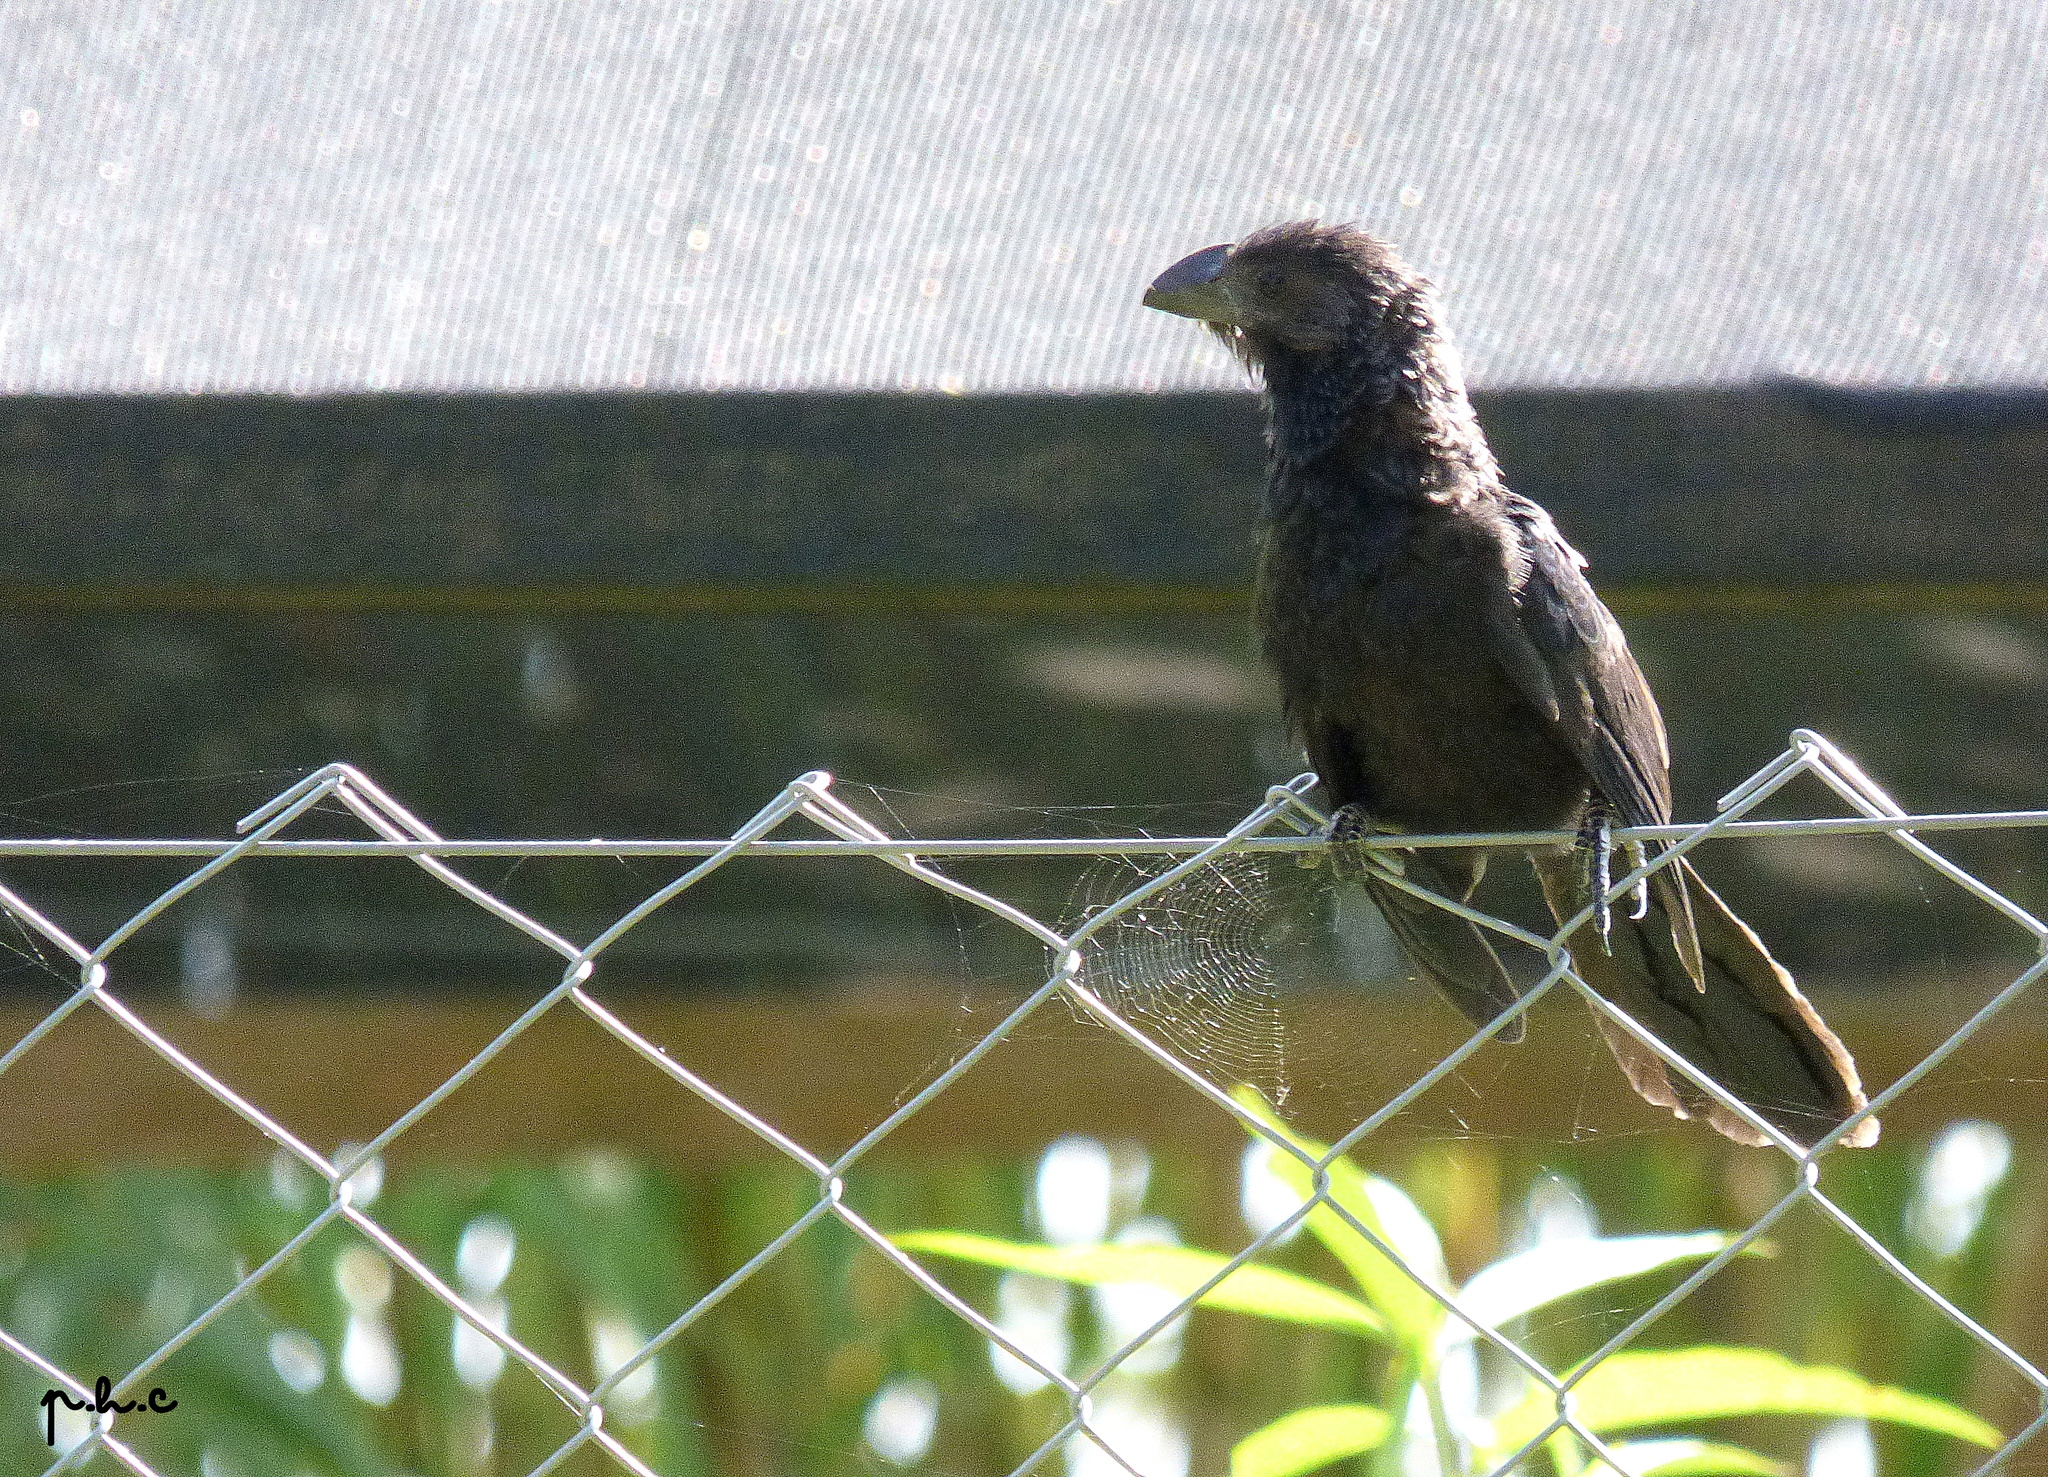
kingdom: Animalia
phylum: Chordata
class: Aves
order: Cuculiformes
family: Cuculidae
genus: Crotophaga
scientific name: Crotophaga ani
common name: Smooth-billed ani
